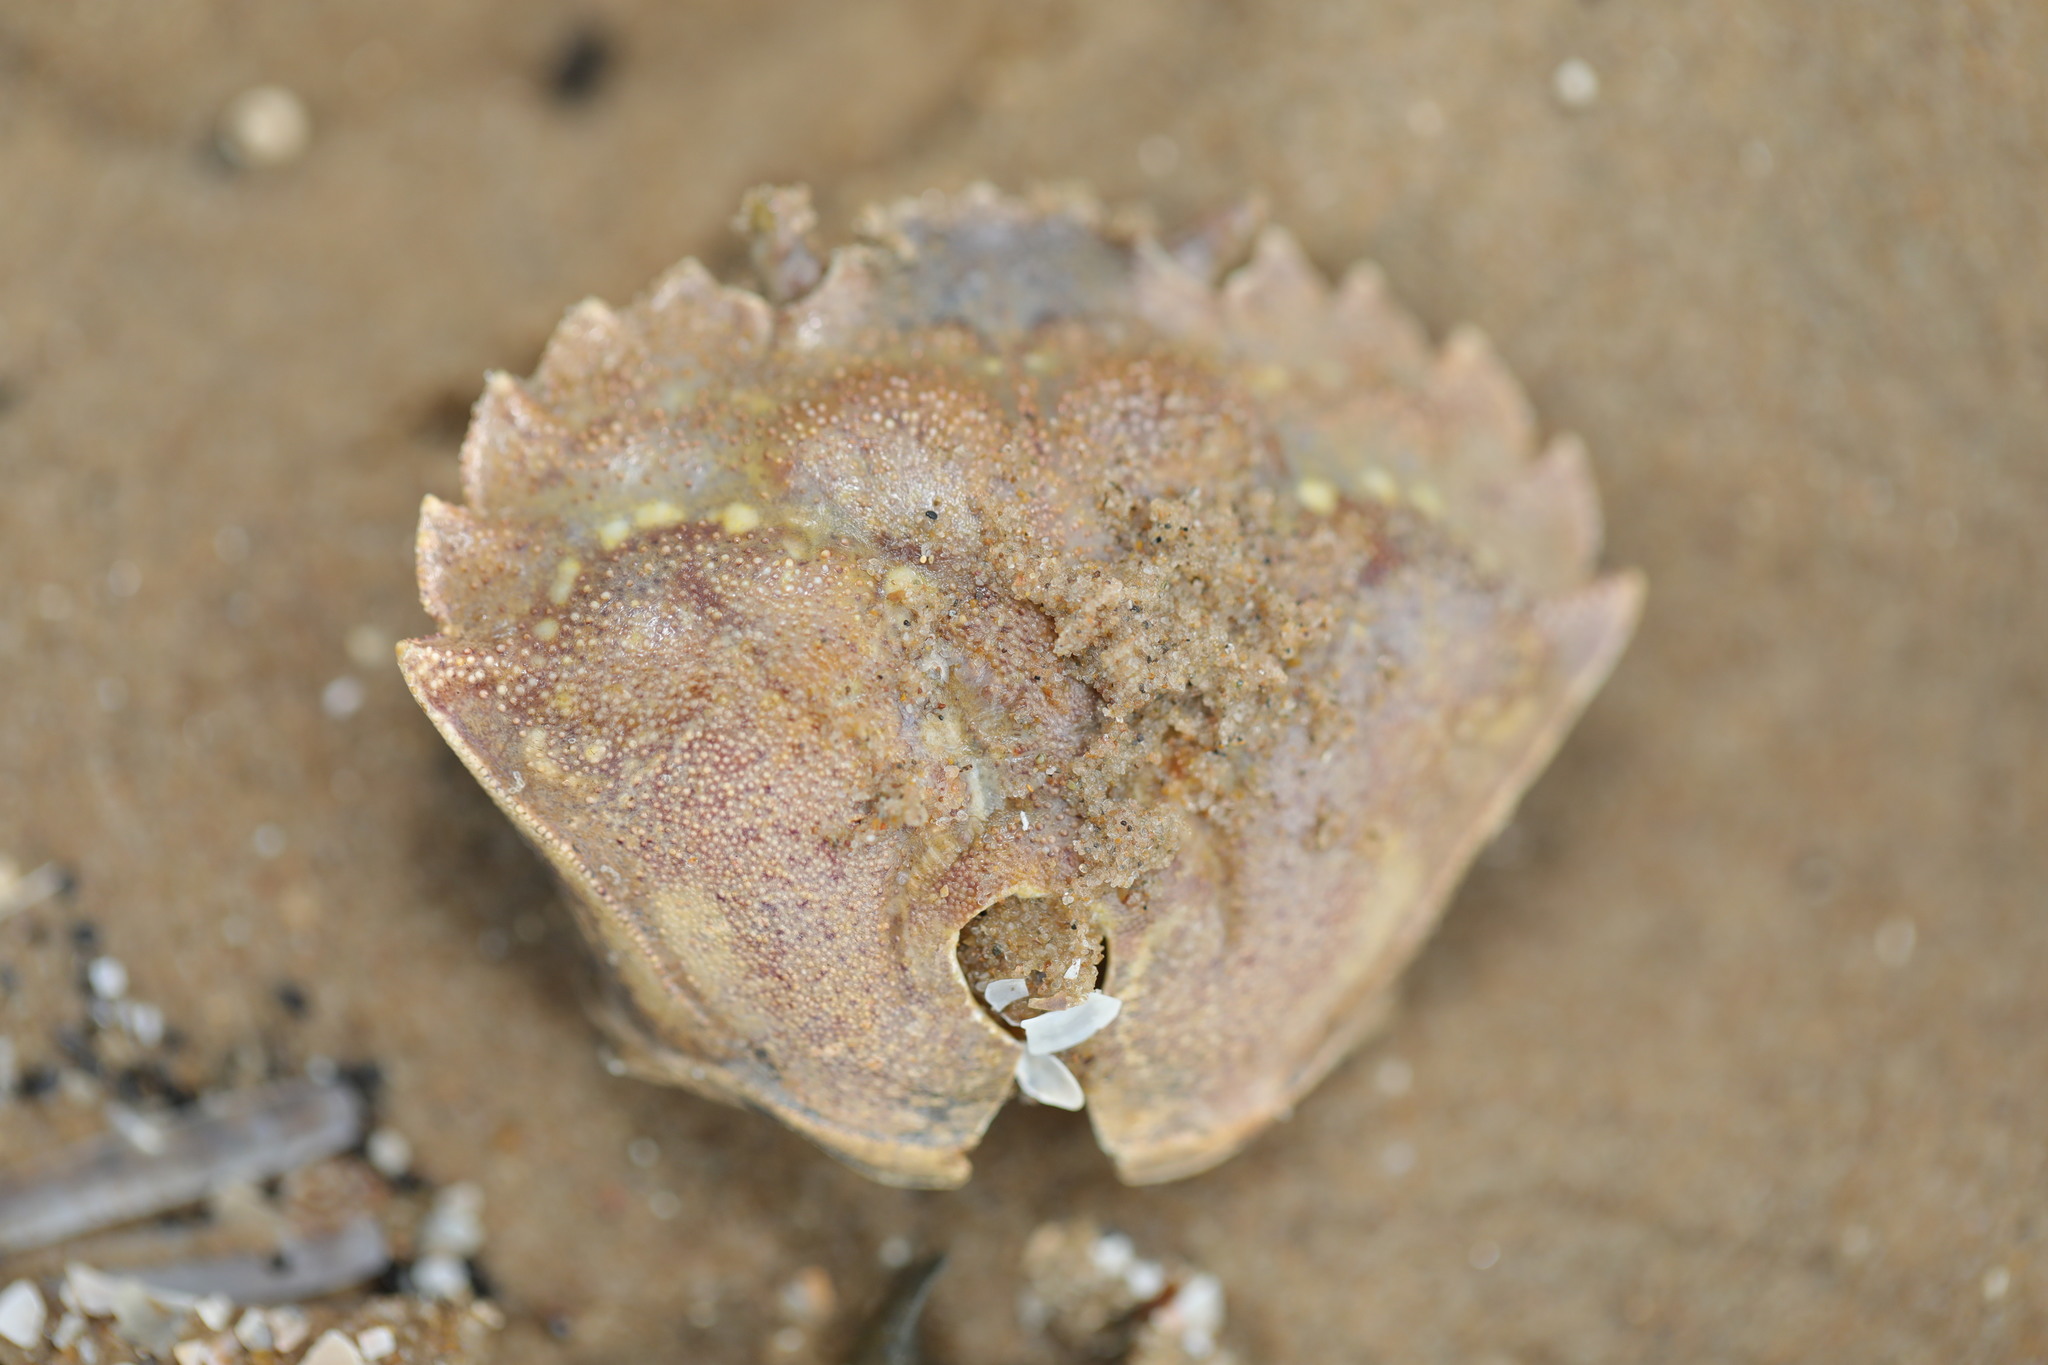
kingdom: Animalia
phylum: Arthropoda
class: Malacostraca
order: Decapoda
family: Carcinidae
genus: Carcinus
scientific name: Carcinus maenas
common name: European green crab
